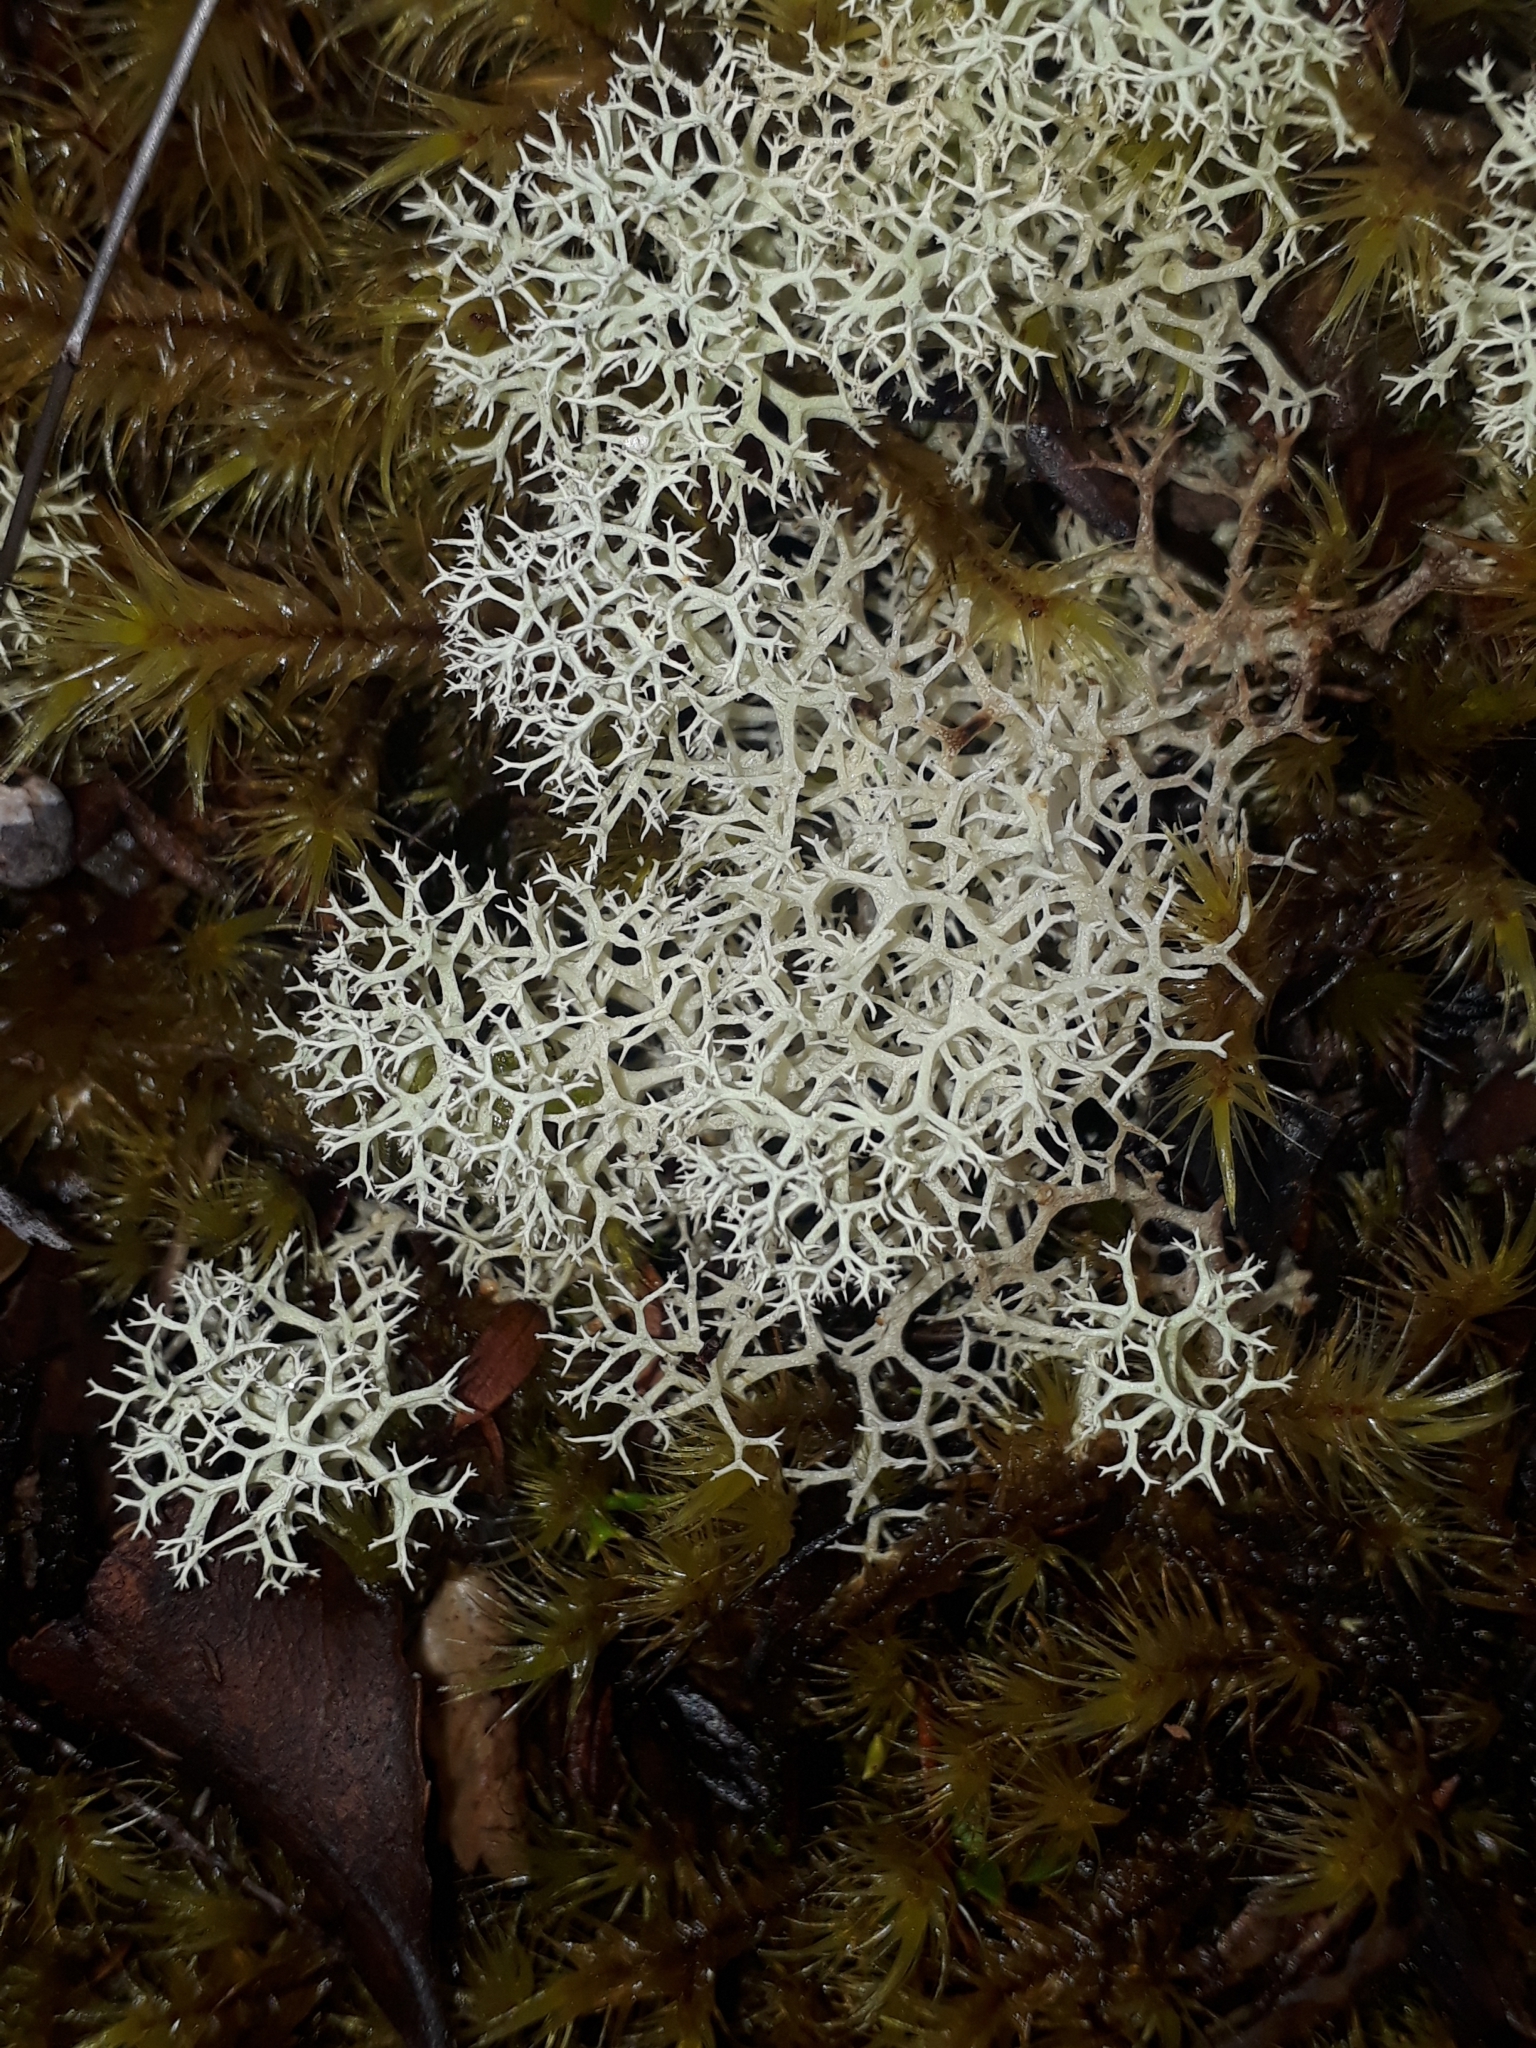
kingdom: Fungi
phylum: Ascomycota
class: Lecanoromycetes
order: Lecanorales
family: Cladoniaceae
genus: Cladonia
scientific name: Cladonia confusa
